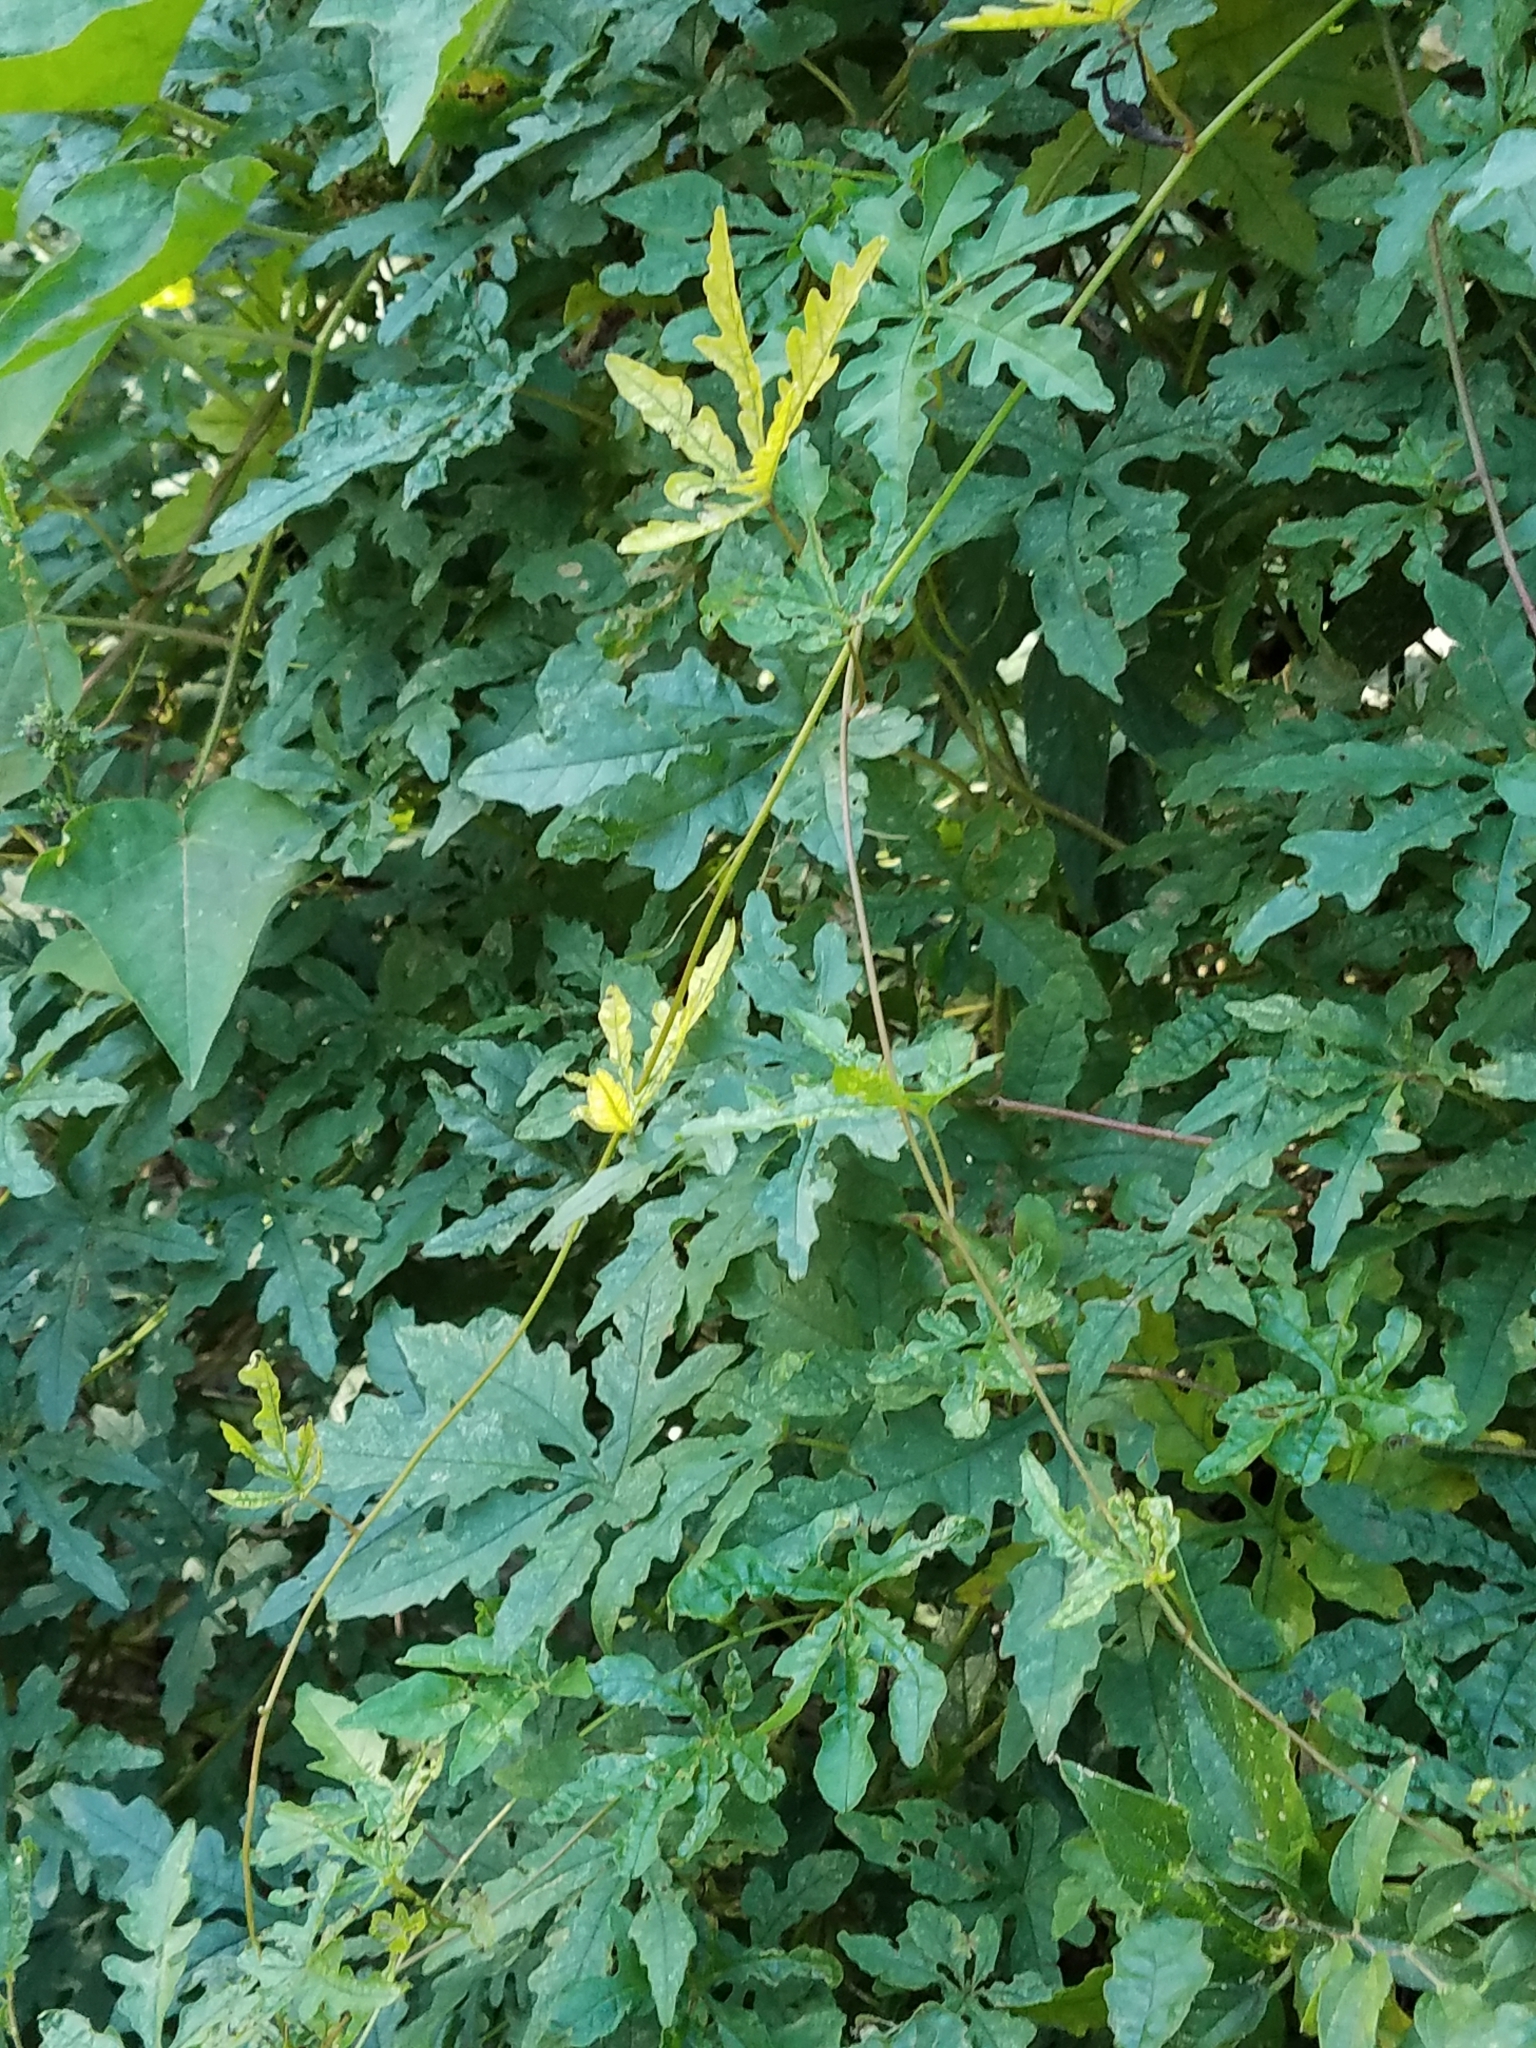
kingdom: Plantae
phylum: Tracheophyta
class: Magnoliopsida
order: Solanales
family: Convolvulaceae
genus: Distimake
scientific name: Distimake dissectus
